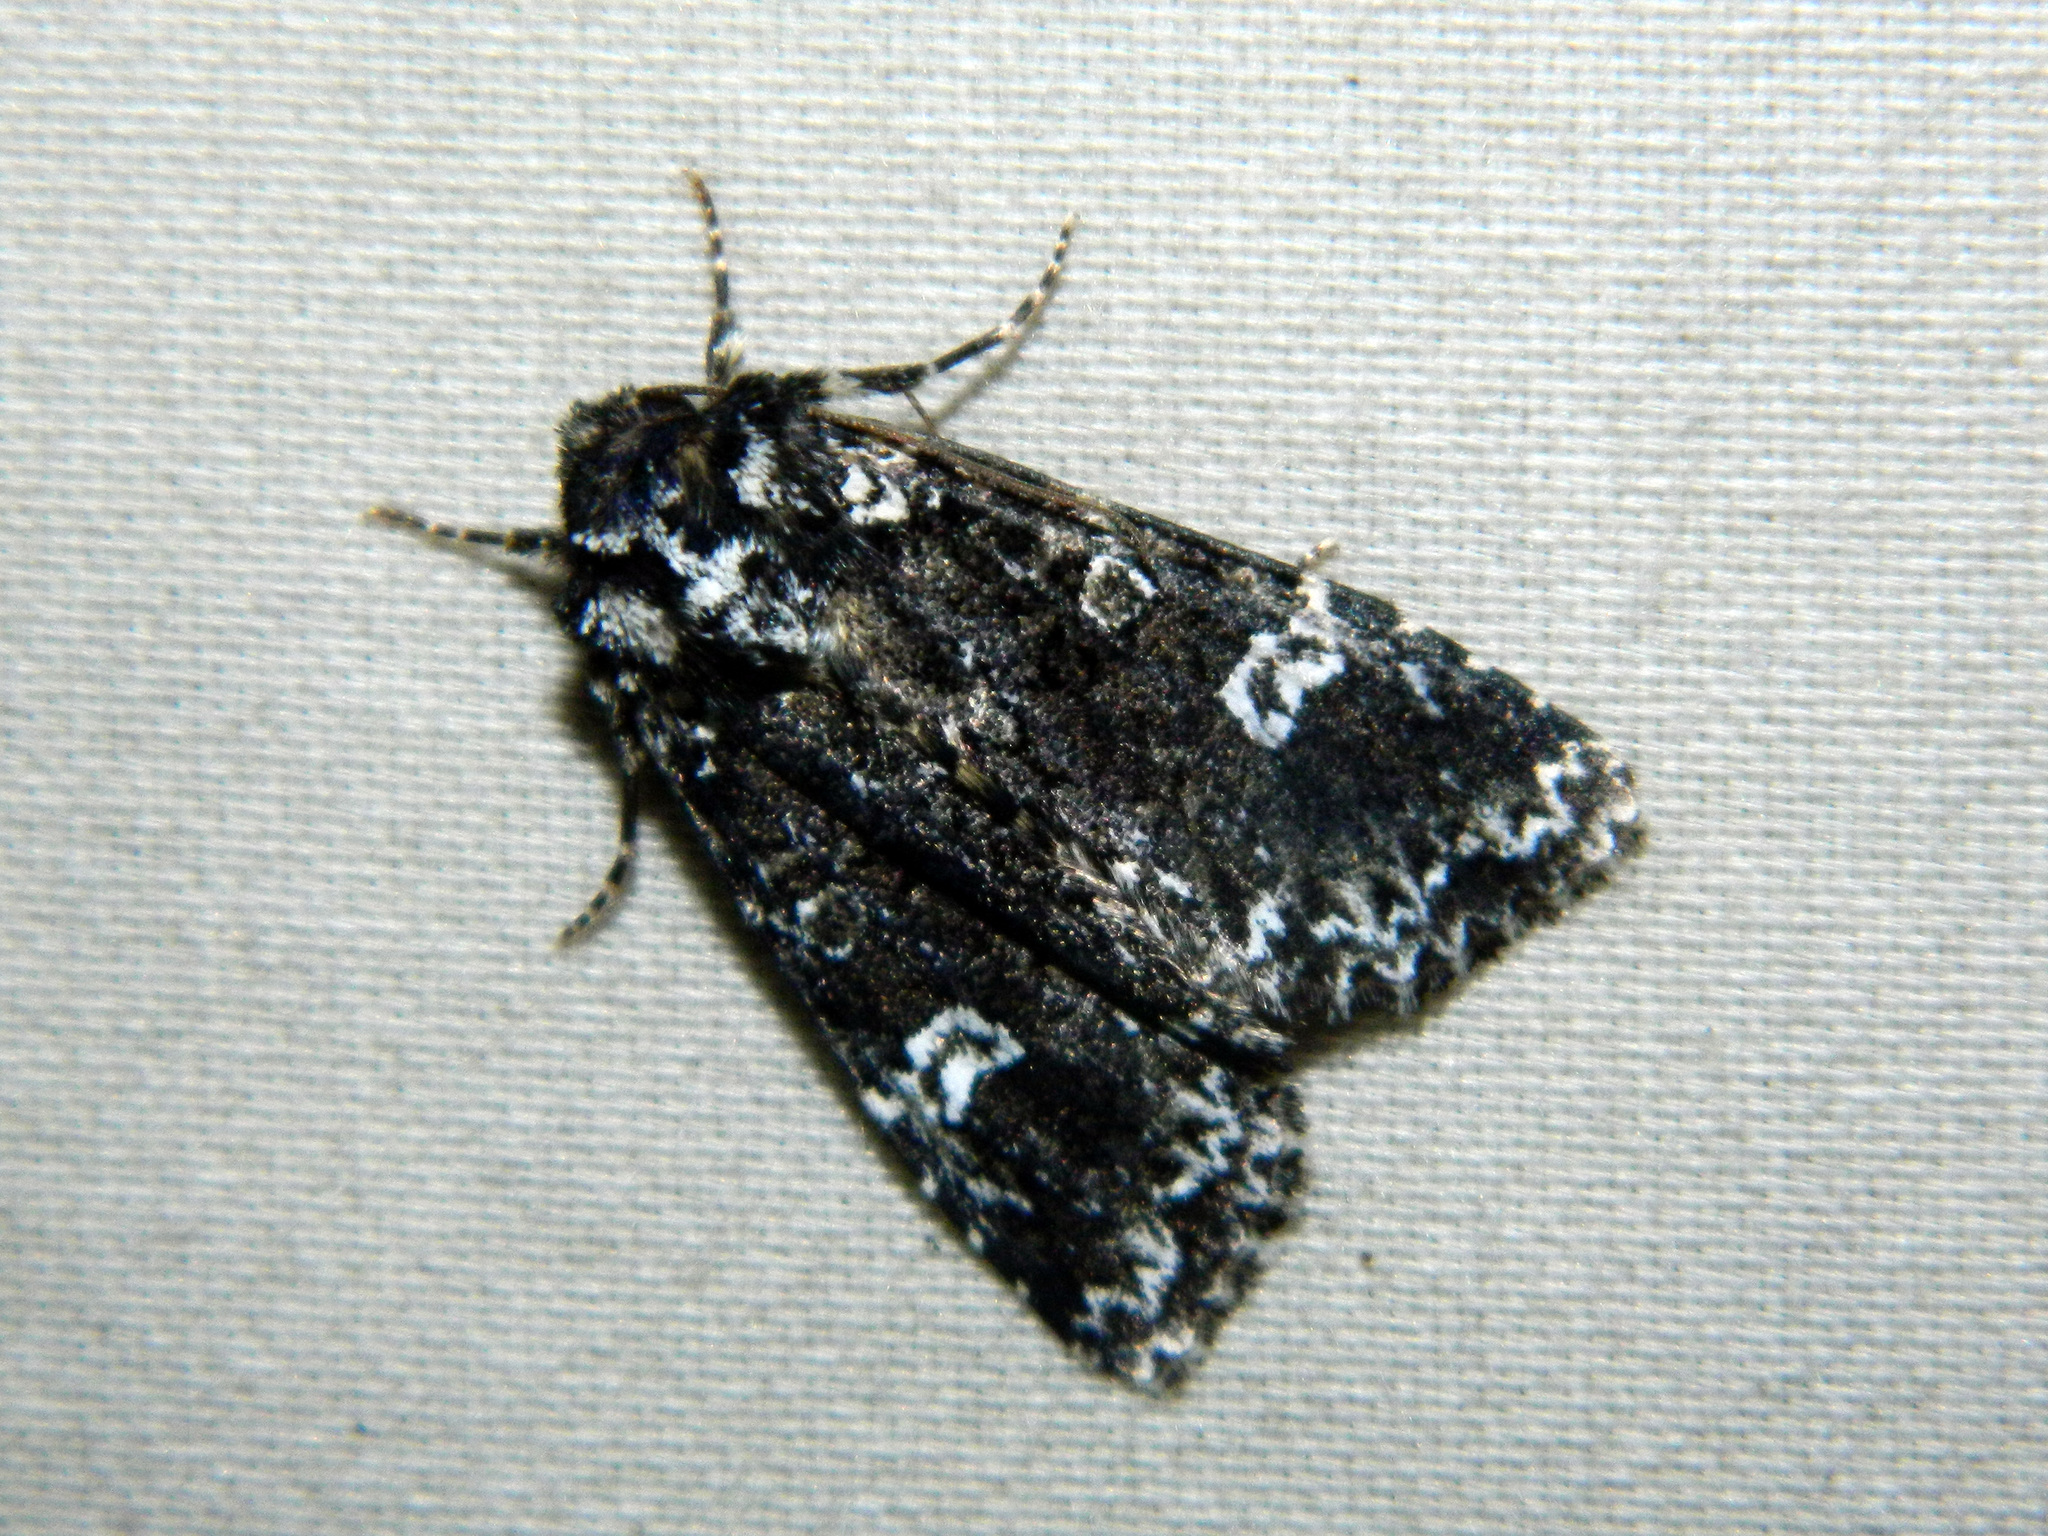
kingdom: Animalia
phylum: Arthropoda
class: Insecta
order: Lepidoptera
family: Noctuidae
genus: Melanchra
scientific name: Melanchra adjuncta
